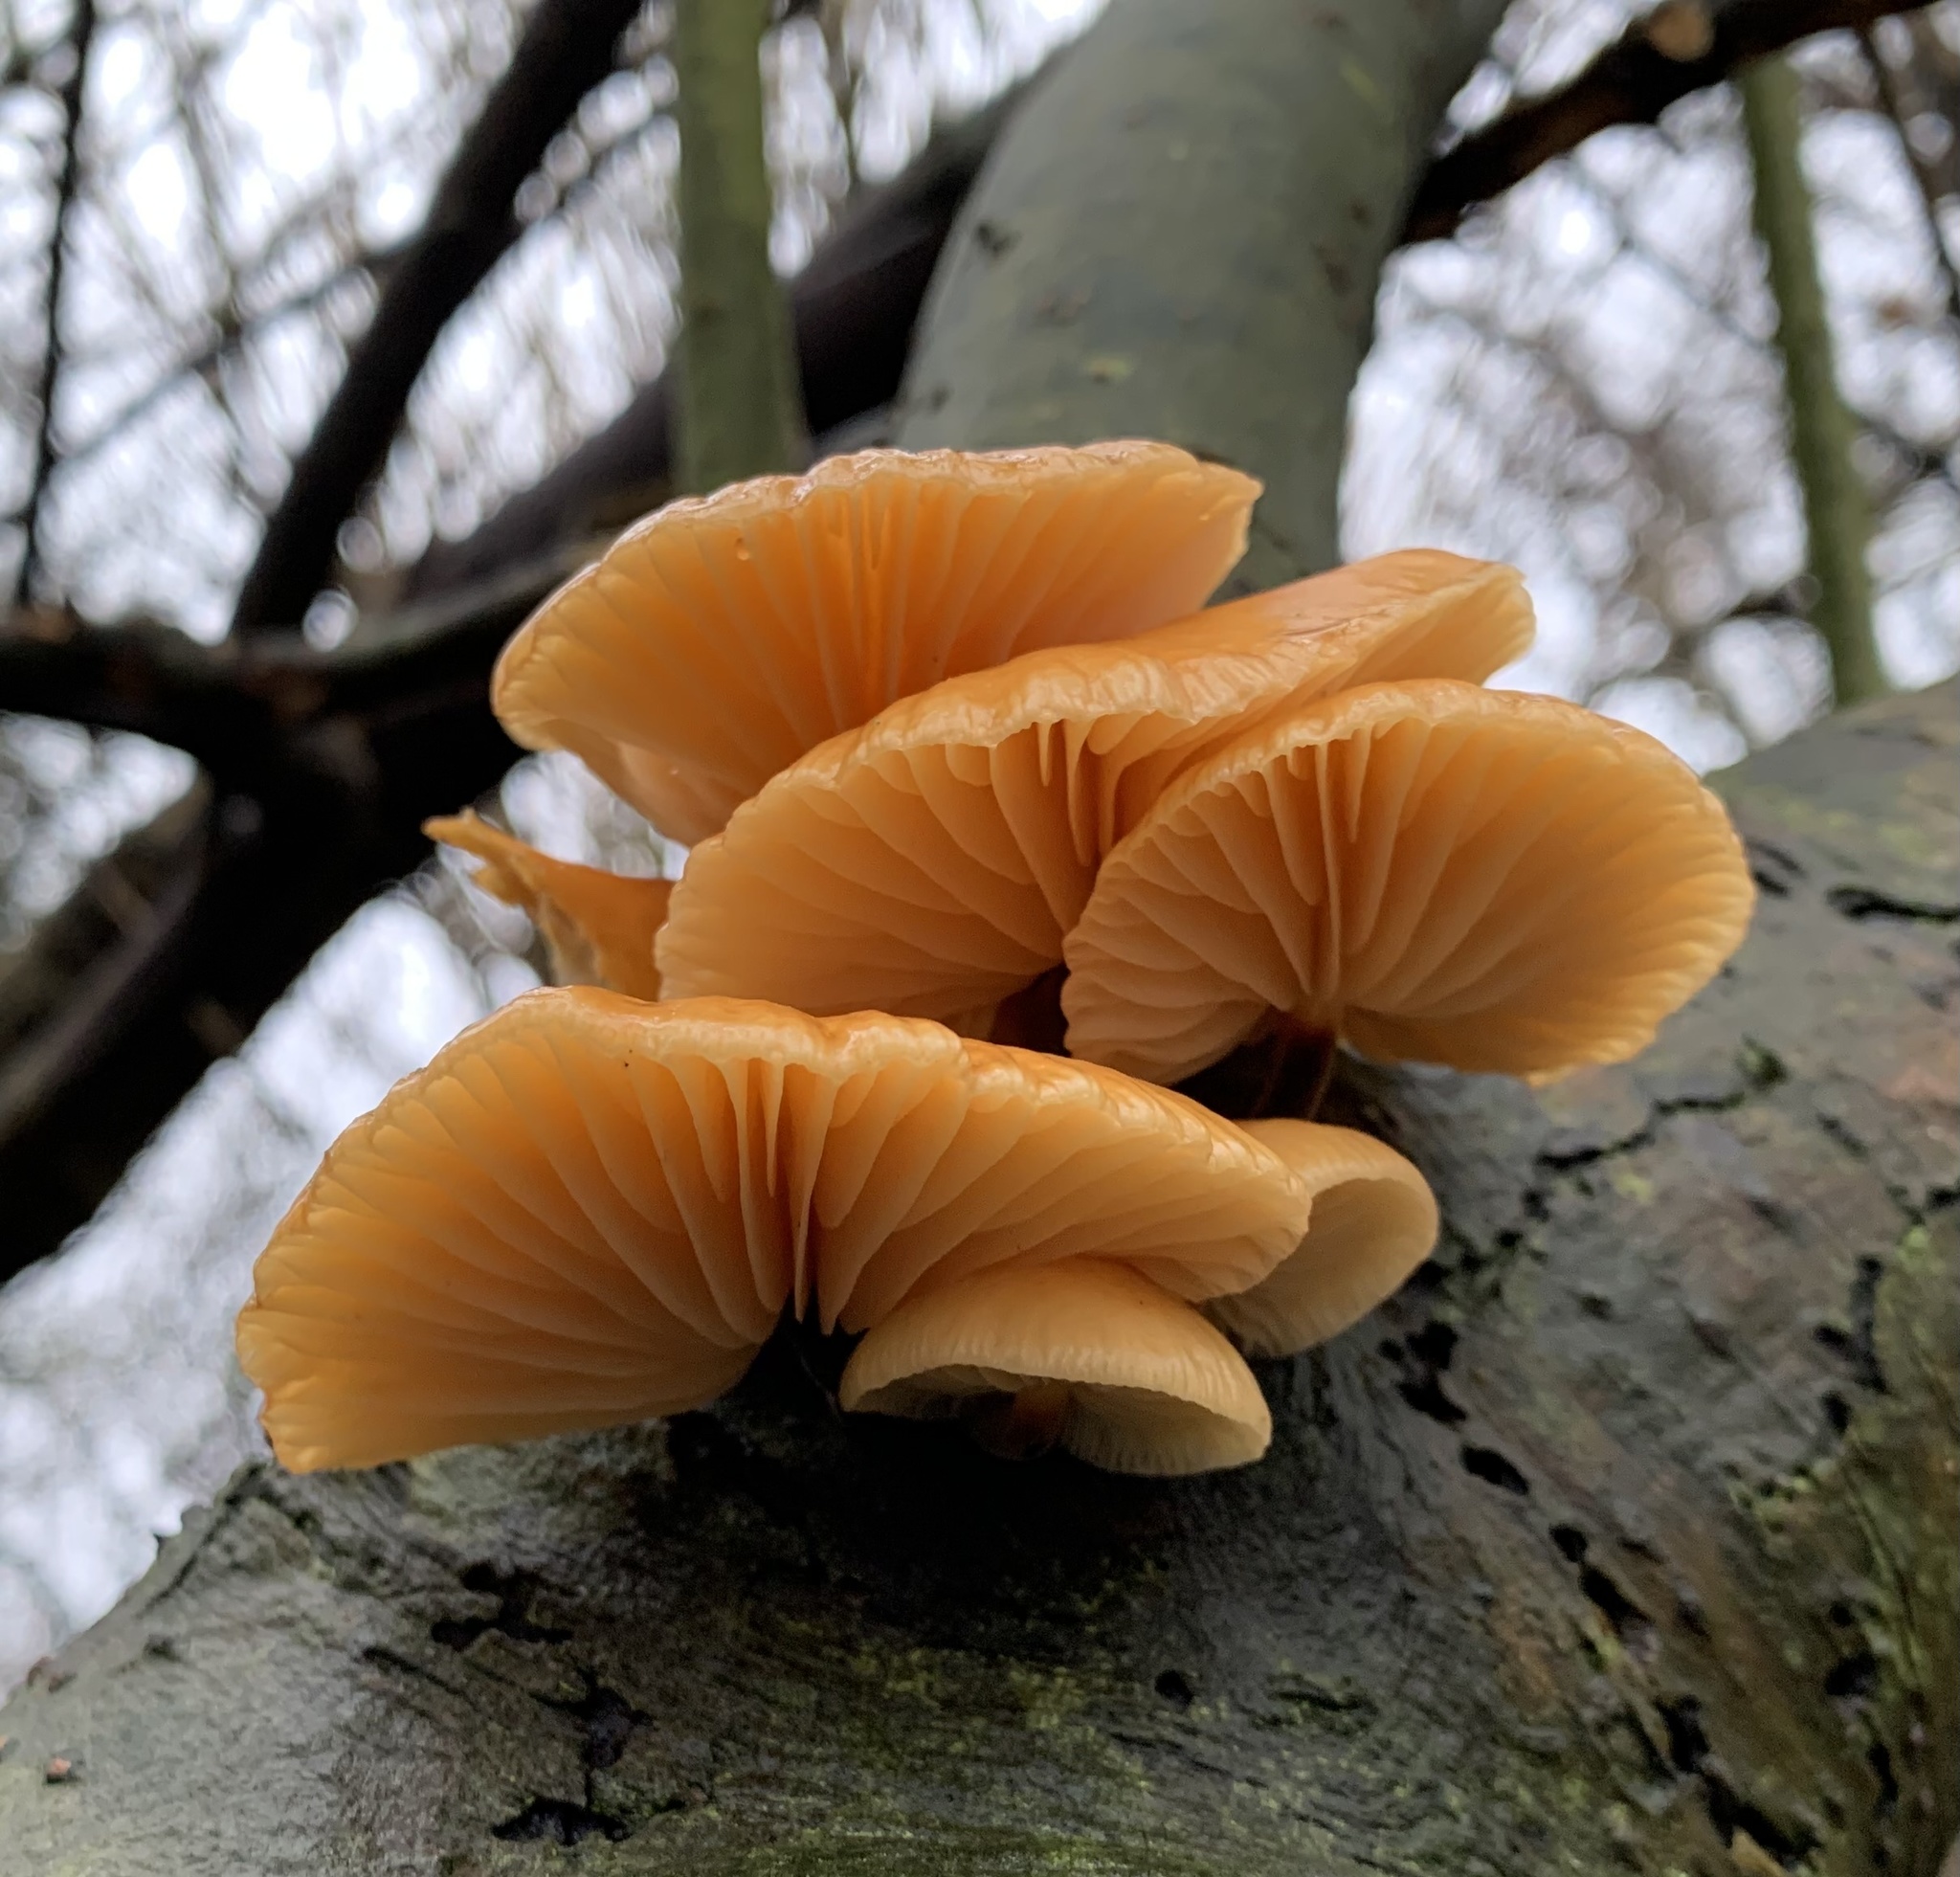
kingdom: Fungi
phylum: Basidiomycota
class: Agaricomycetes
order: Agaricales
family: Physalacriaceae
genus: Flammulina
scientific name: Flammulina
